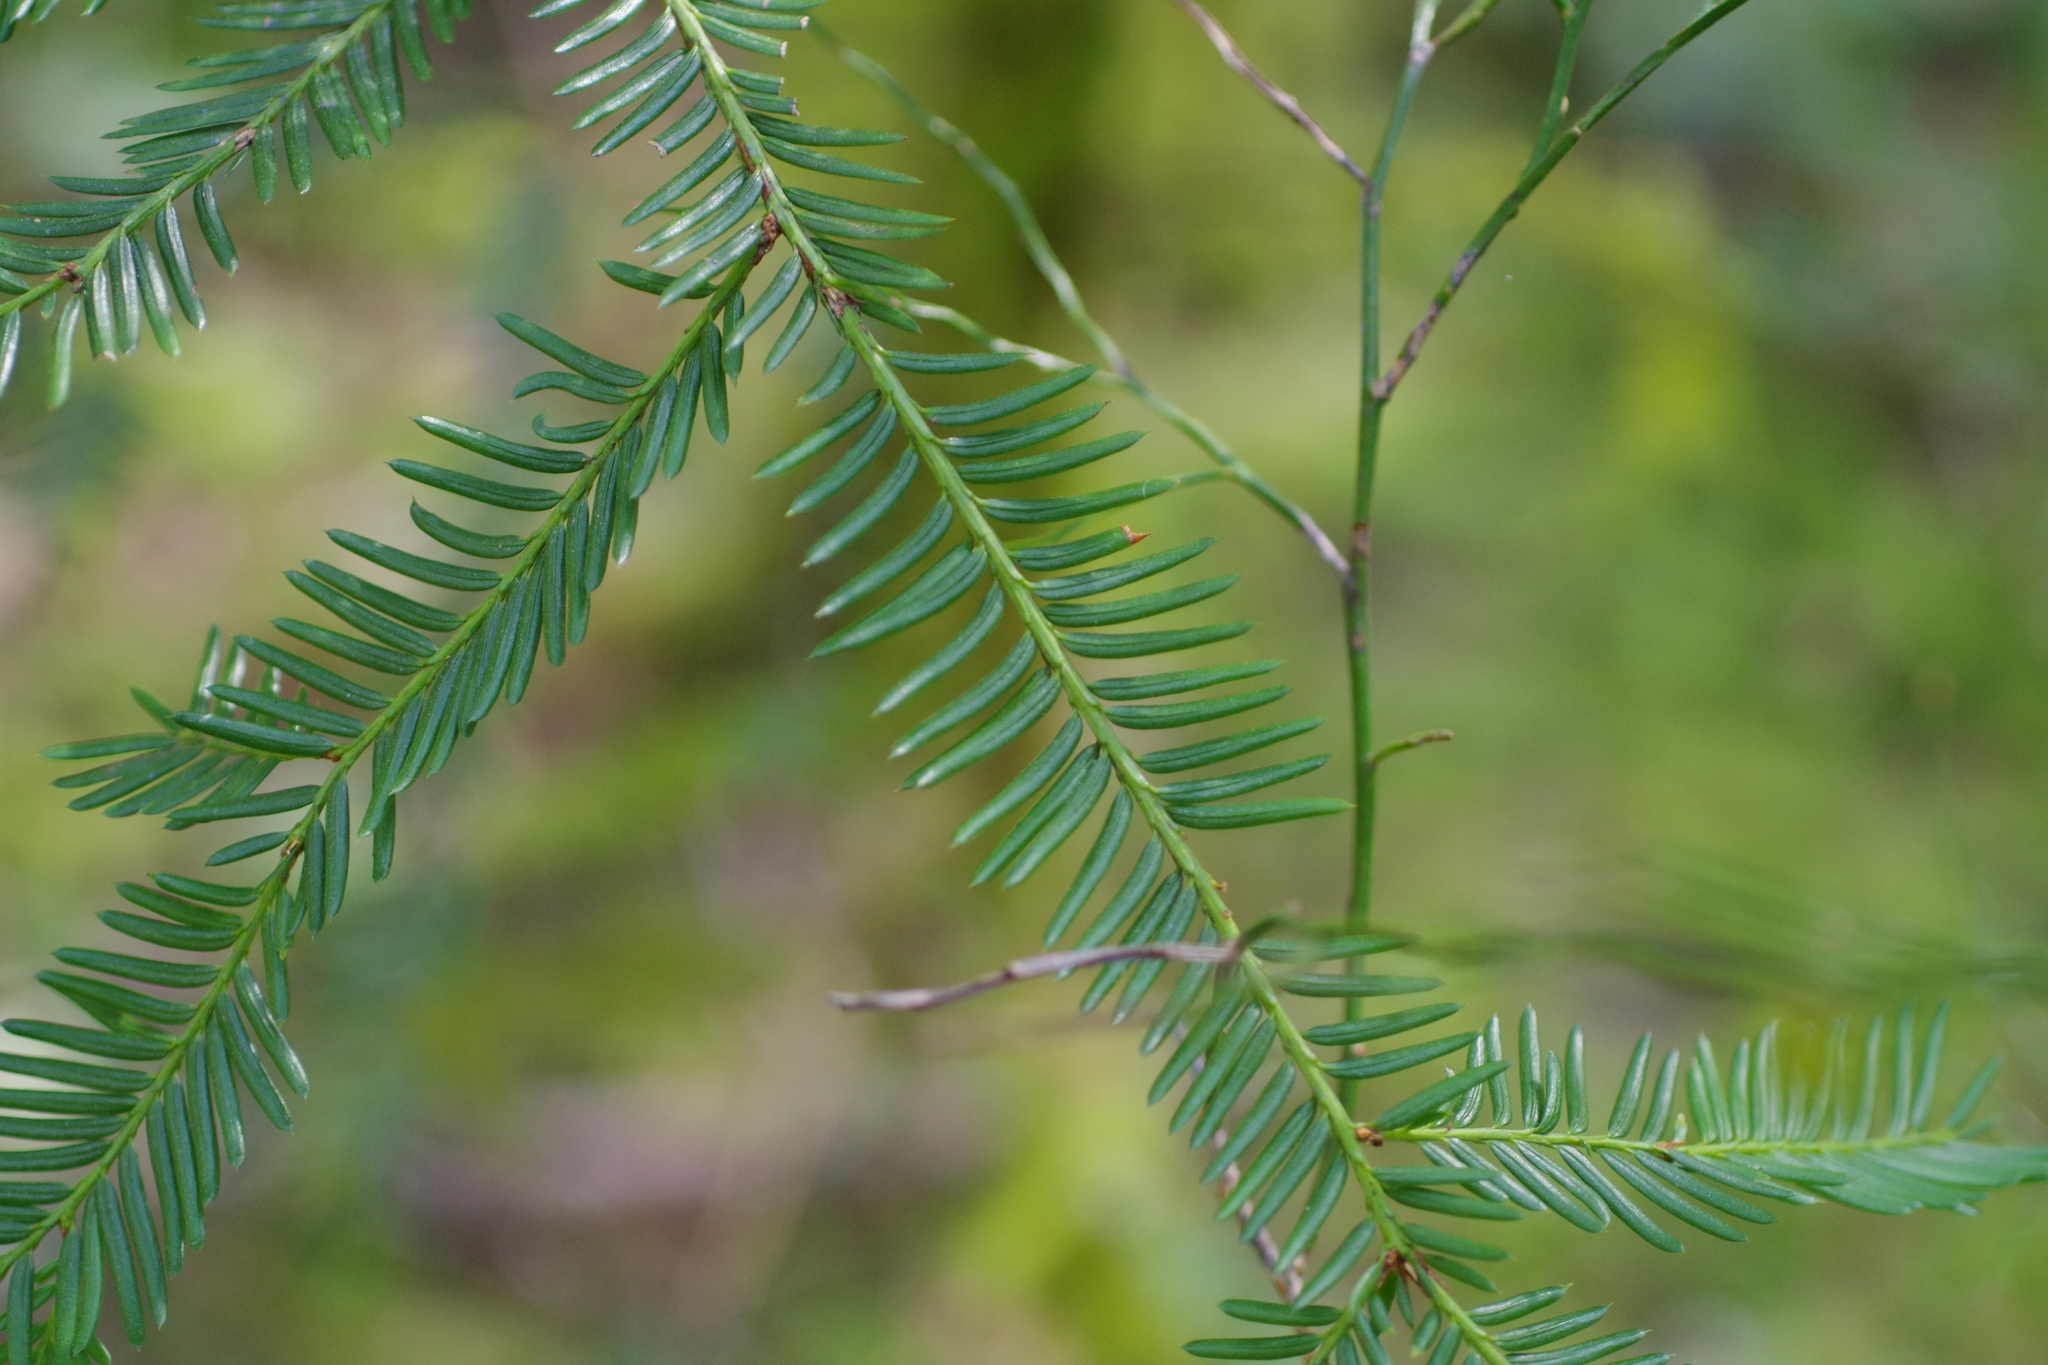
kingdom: Plantae
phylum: Tracheophyta
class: Pinopsida
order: Pinales
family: Taxaceae
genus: Taxus
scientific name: Taxus brevifolia
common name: Pacific yew
